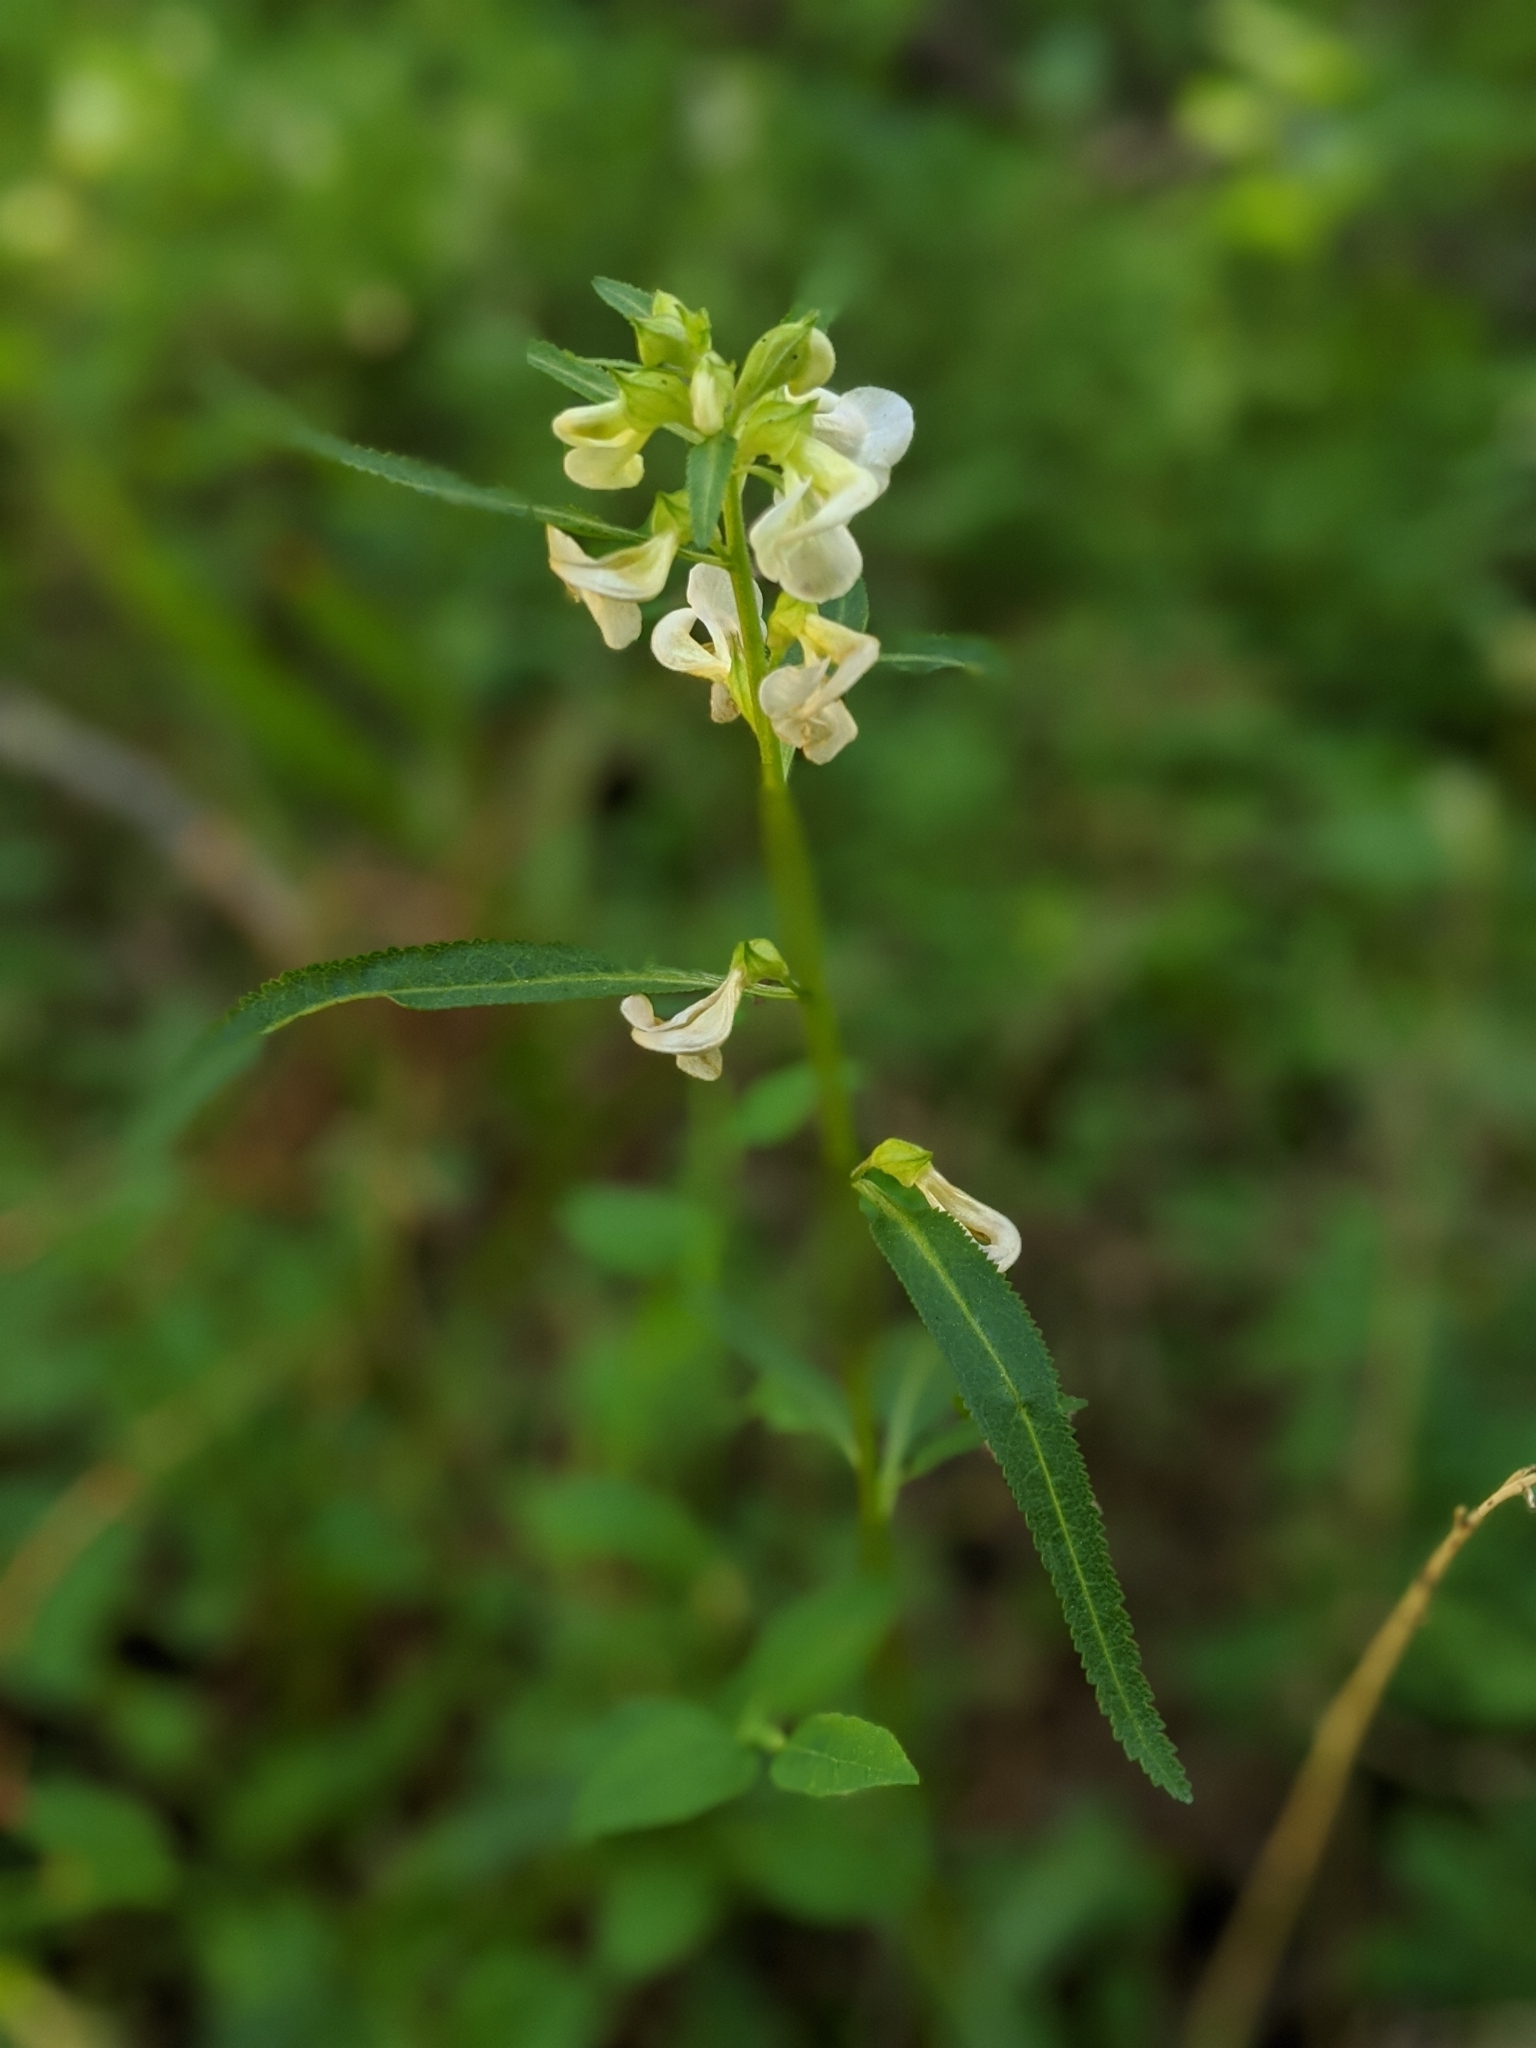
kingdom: Plantae
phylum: Tracheophyta
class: Magnoliopsida
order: Lamiales
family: Orobanchaceae
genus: Pedicularis
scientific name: Pedicularis racemosa
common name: Leafy lousewort
